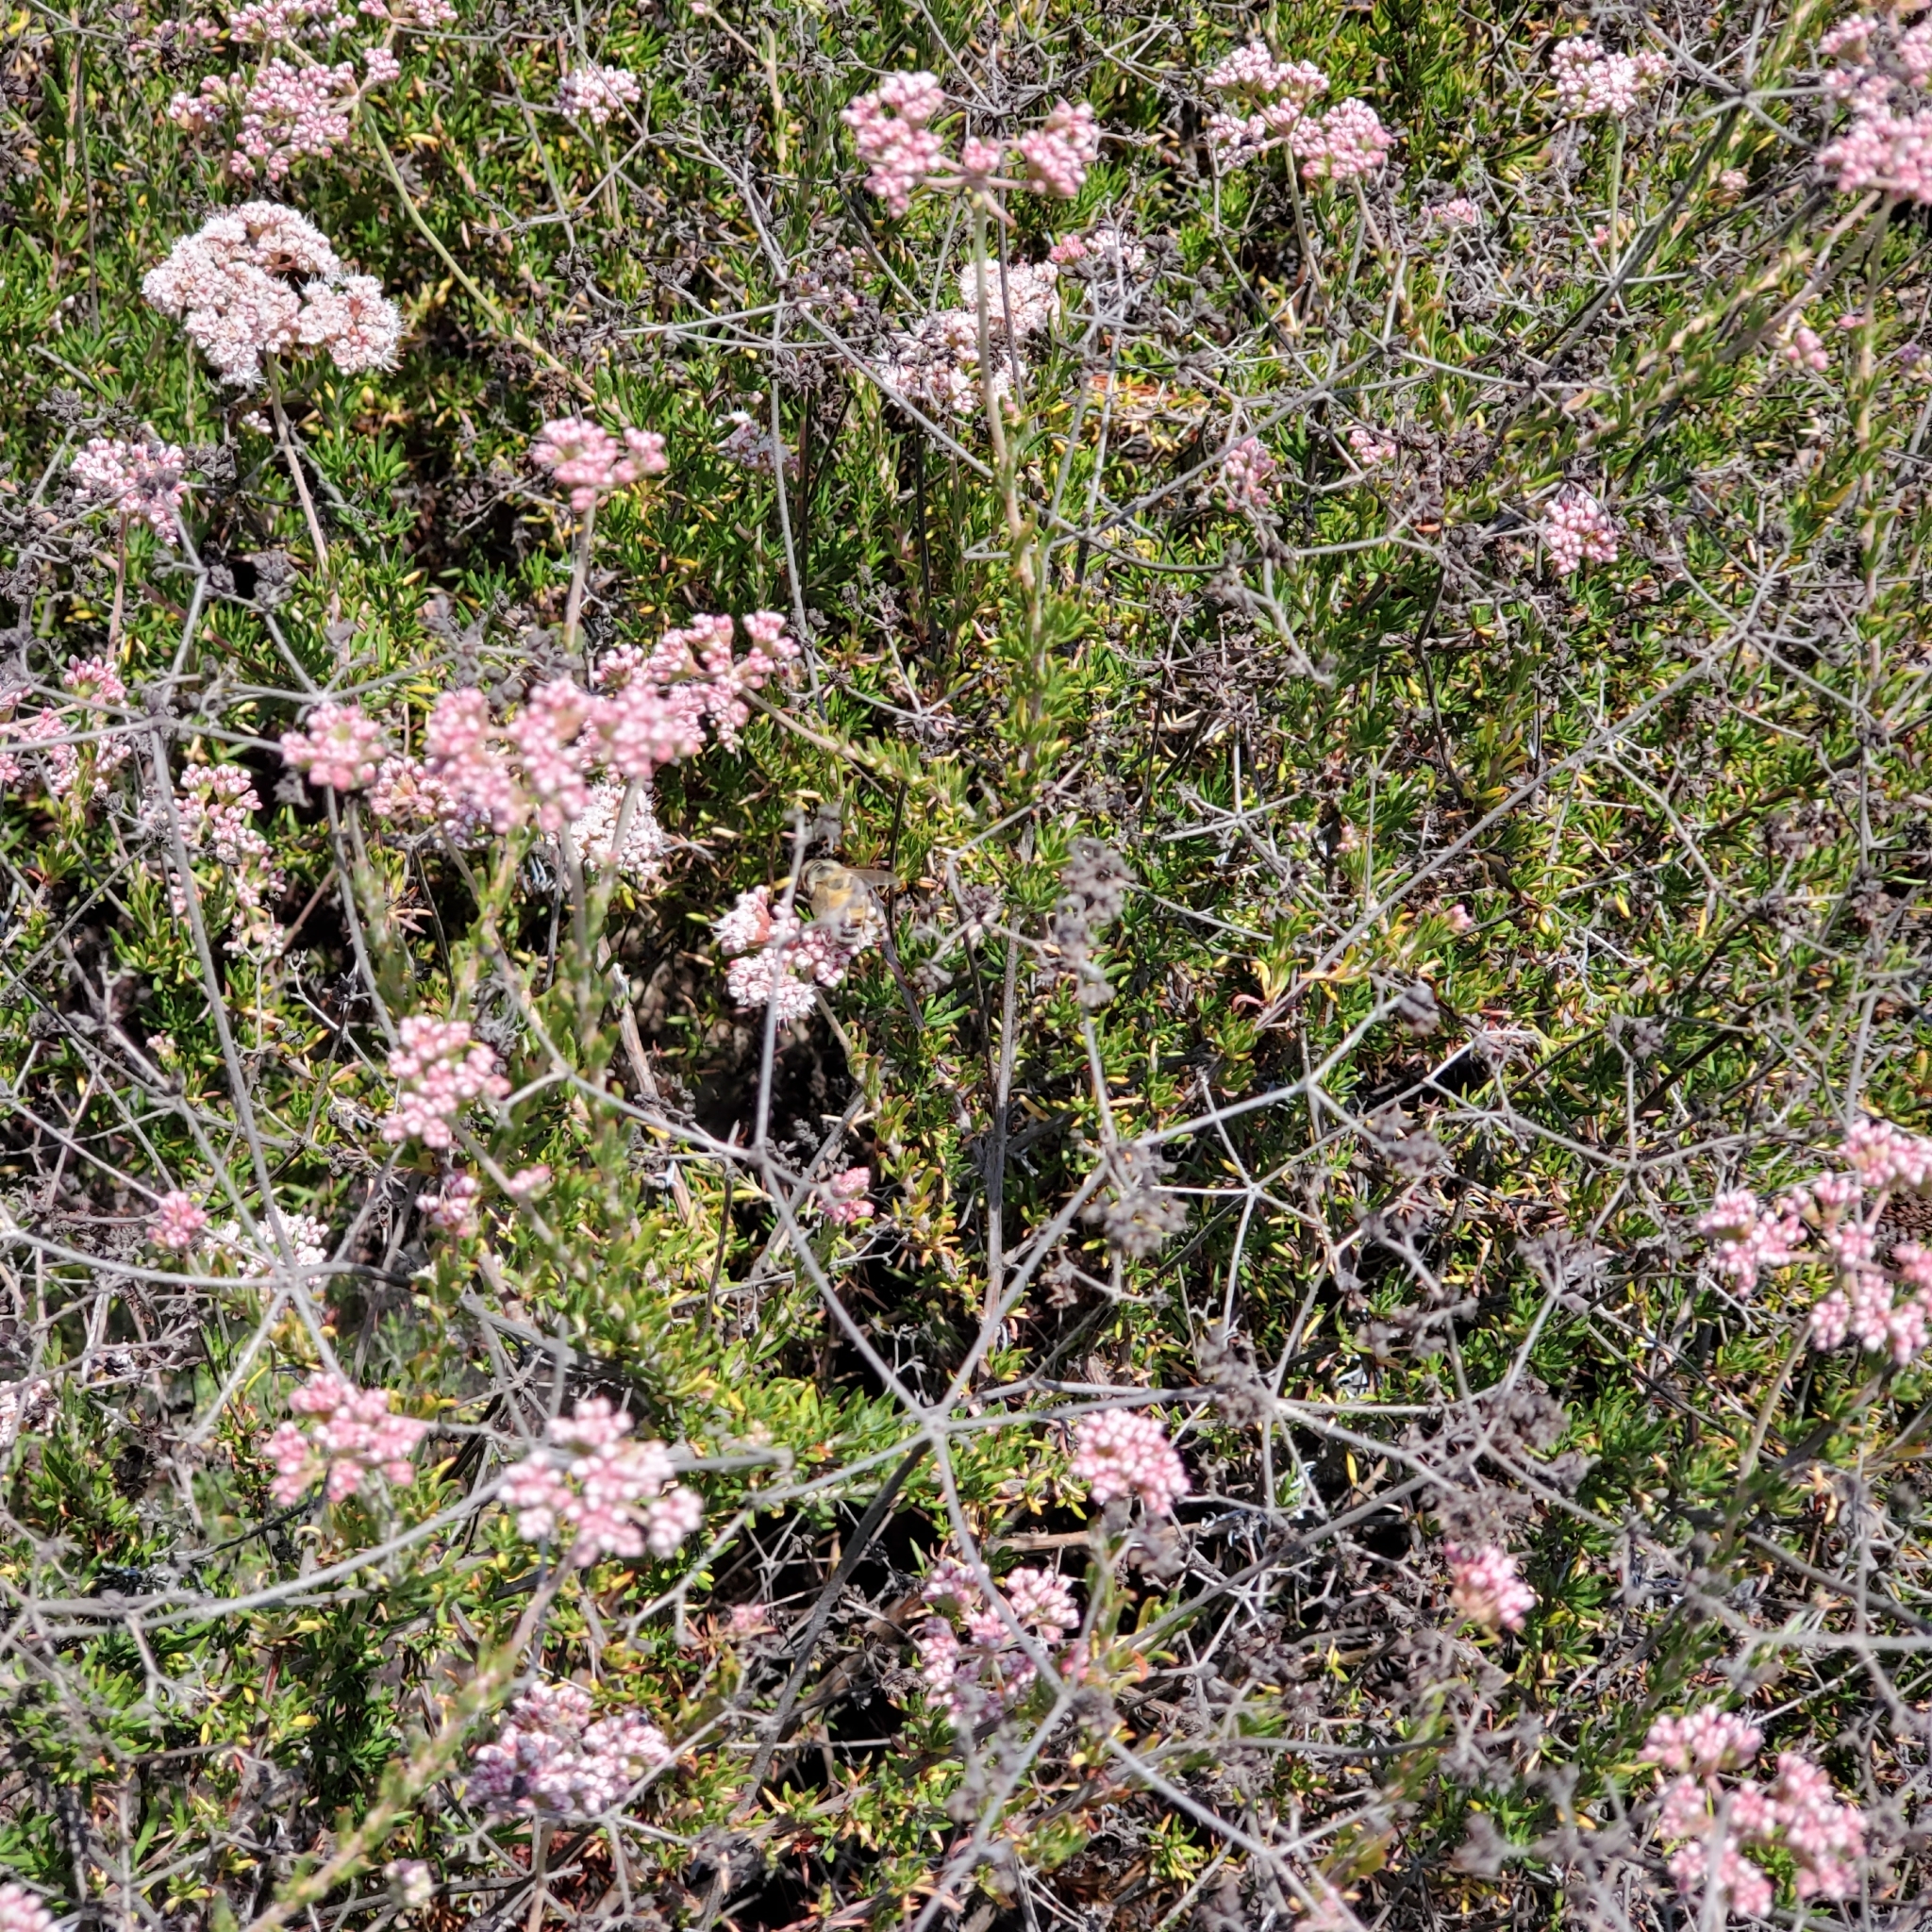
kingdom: Plantae
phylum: Tracheophyta
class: Magnoliopsida
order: Caryophyllales
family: Polygonaceae
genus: Eriogonum
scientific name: Eriogonum fasciculatum
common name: California wild buckwheat
